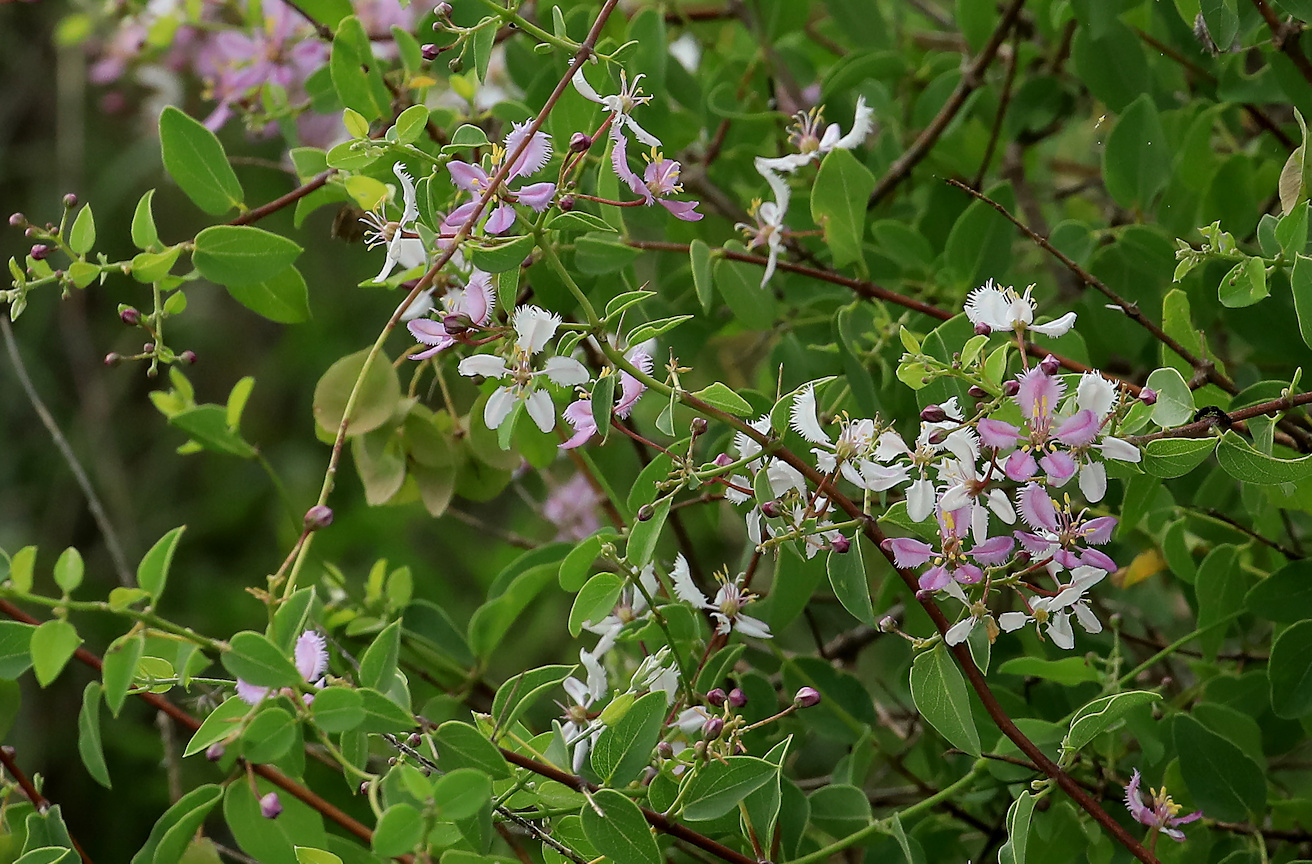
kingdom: Plantae
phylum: Tracheophyta
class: Magnoliopsida
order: Malpighiales
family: Malpighiaceae
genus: Triaspis
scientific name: Triaspis glaucophylla
